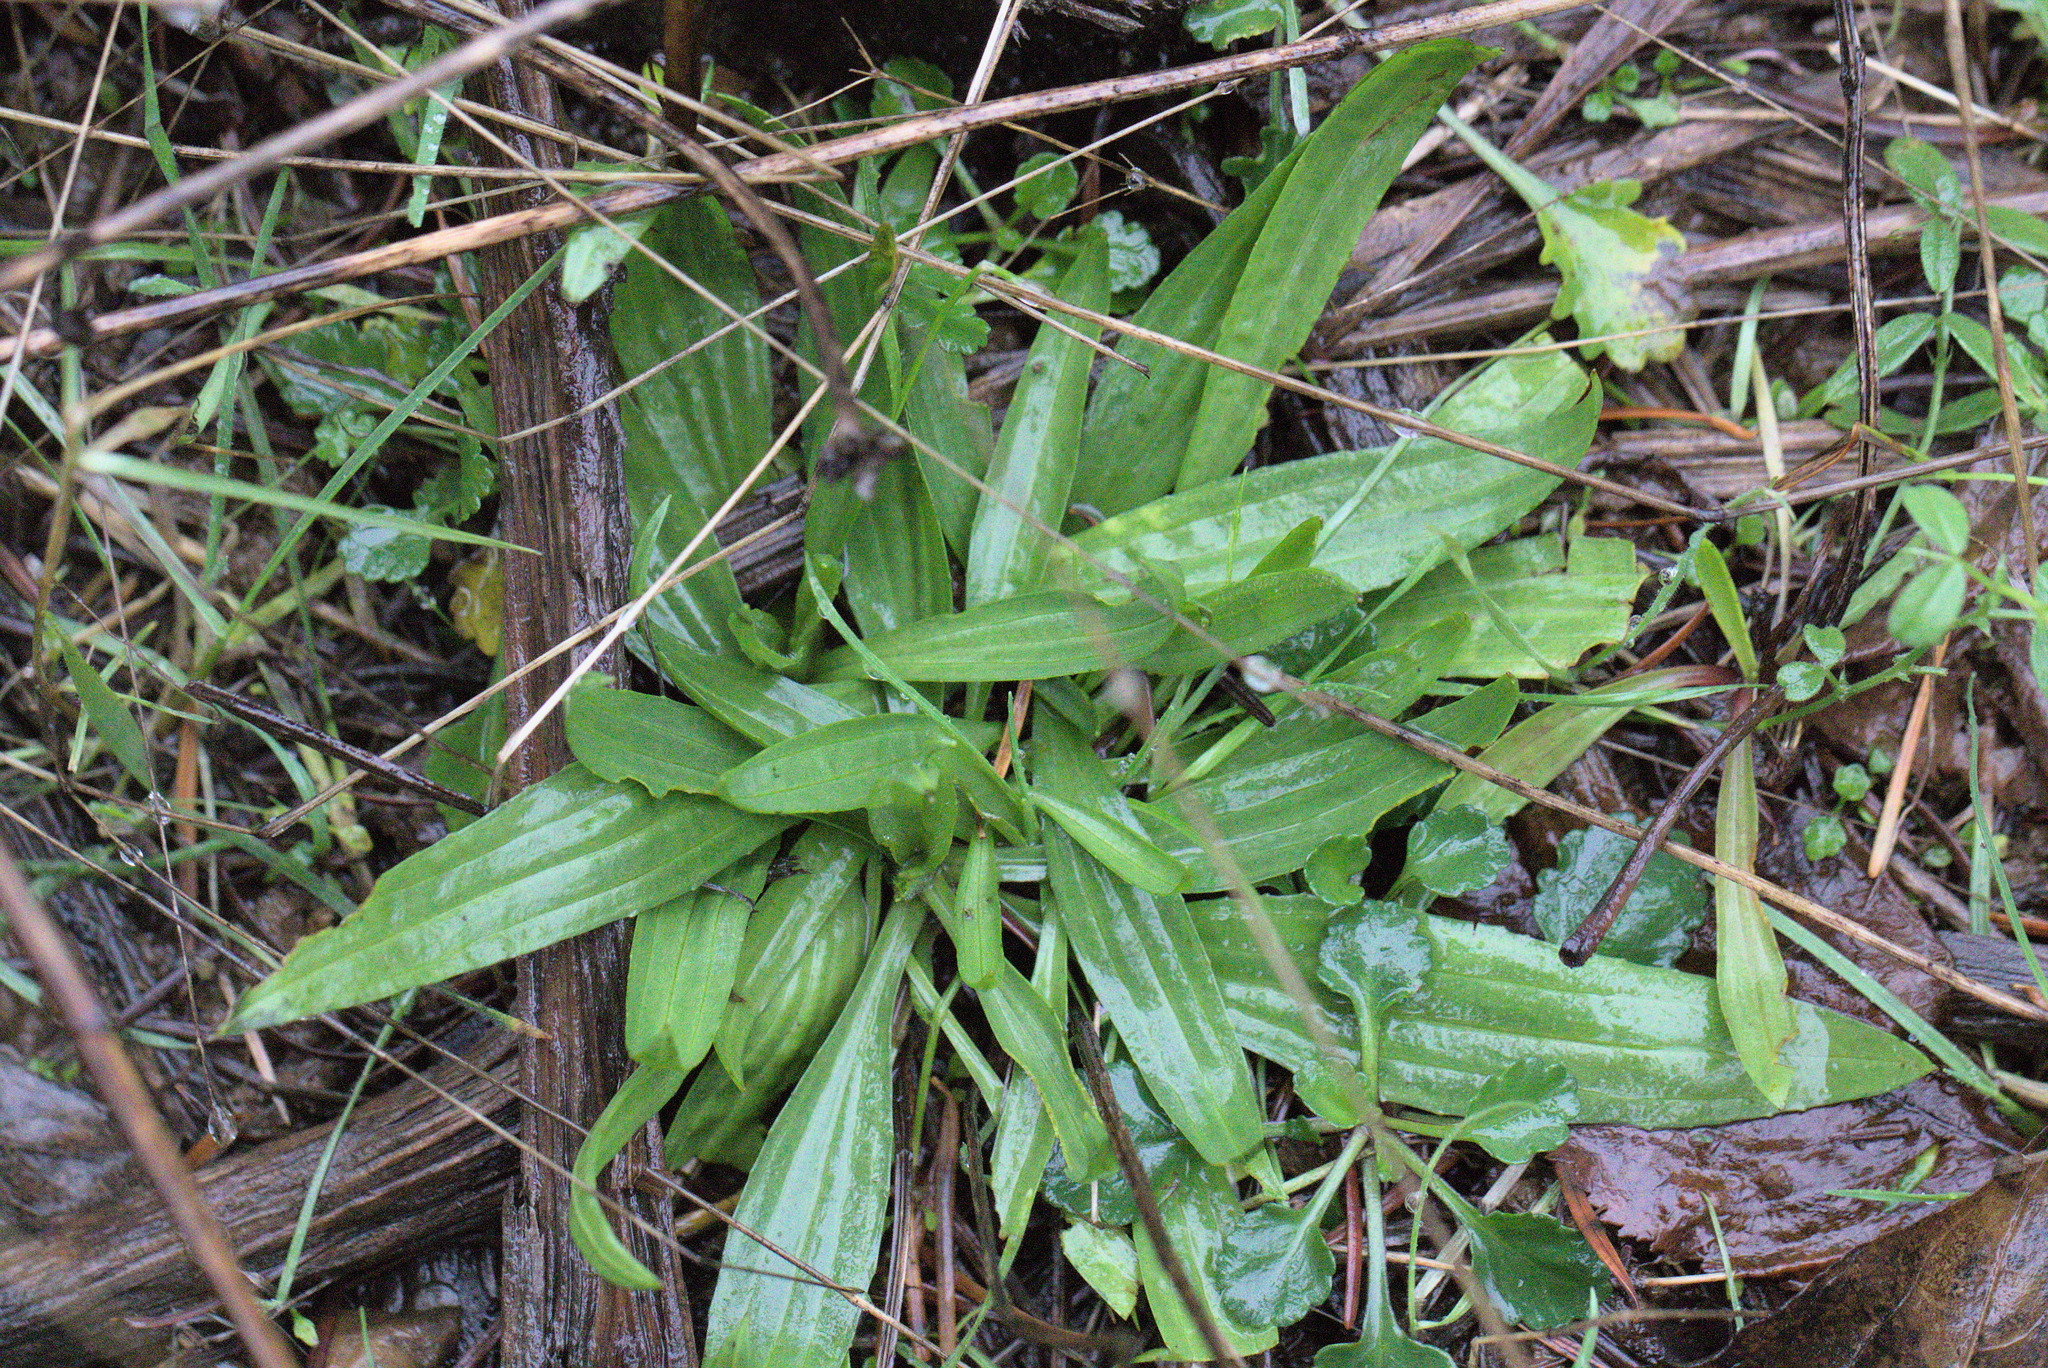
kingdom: Plantae
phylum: Tracheophyta
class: Magnoliopsida
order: Lamiales
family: Plantaginaceae
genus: Plantago
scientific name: Plantago lanceolata
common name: Ribwort plantain
